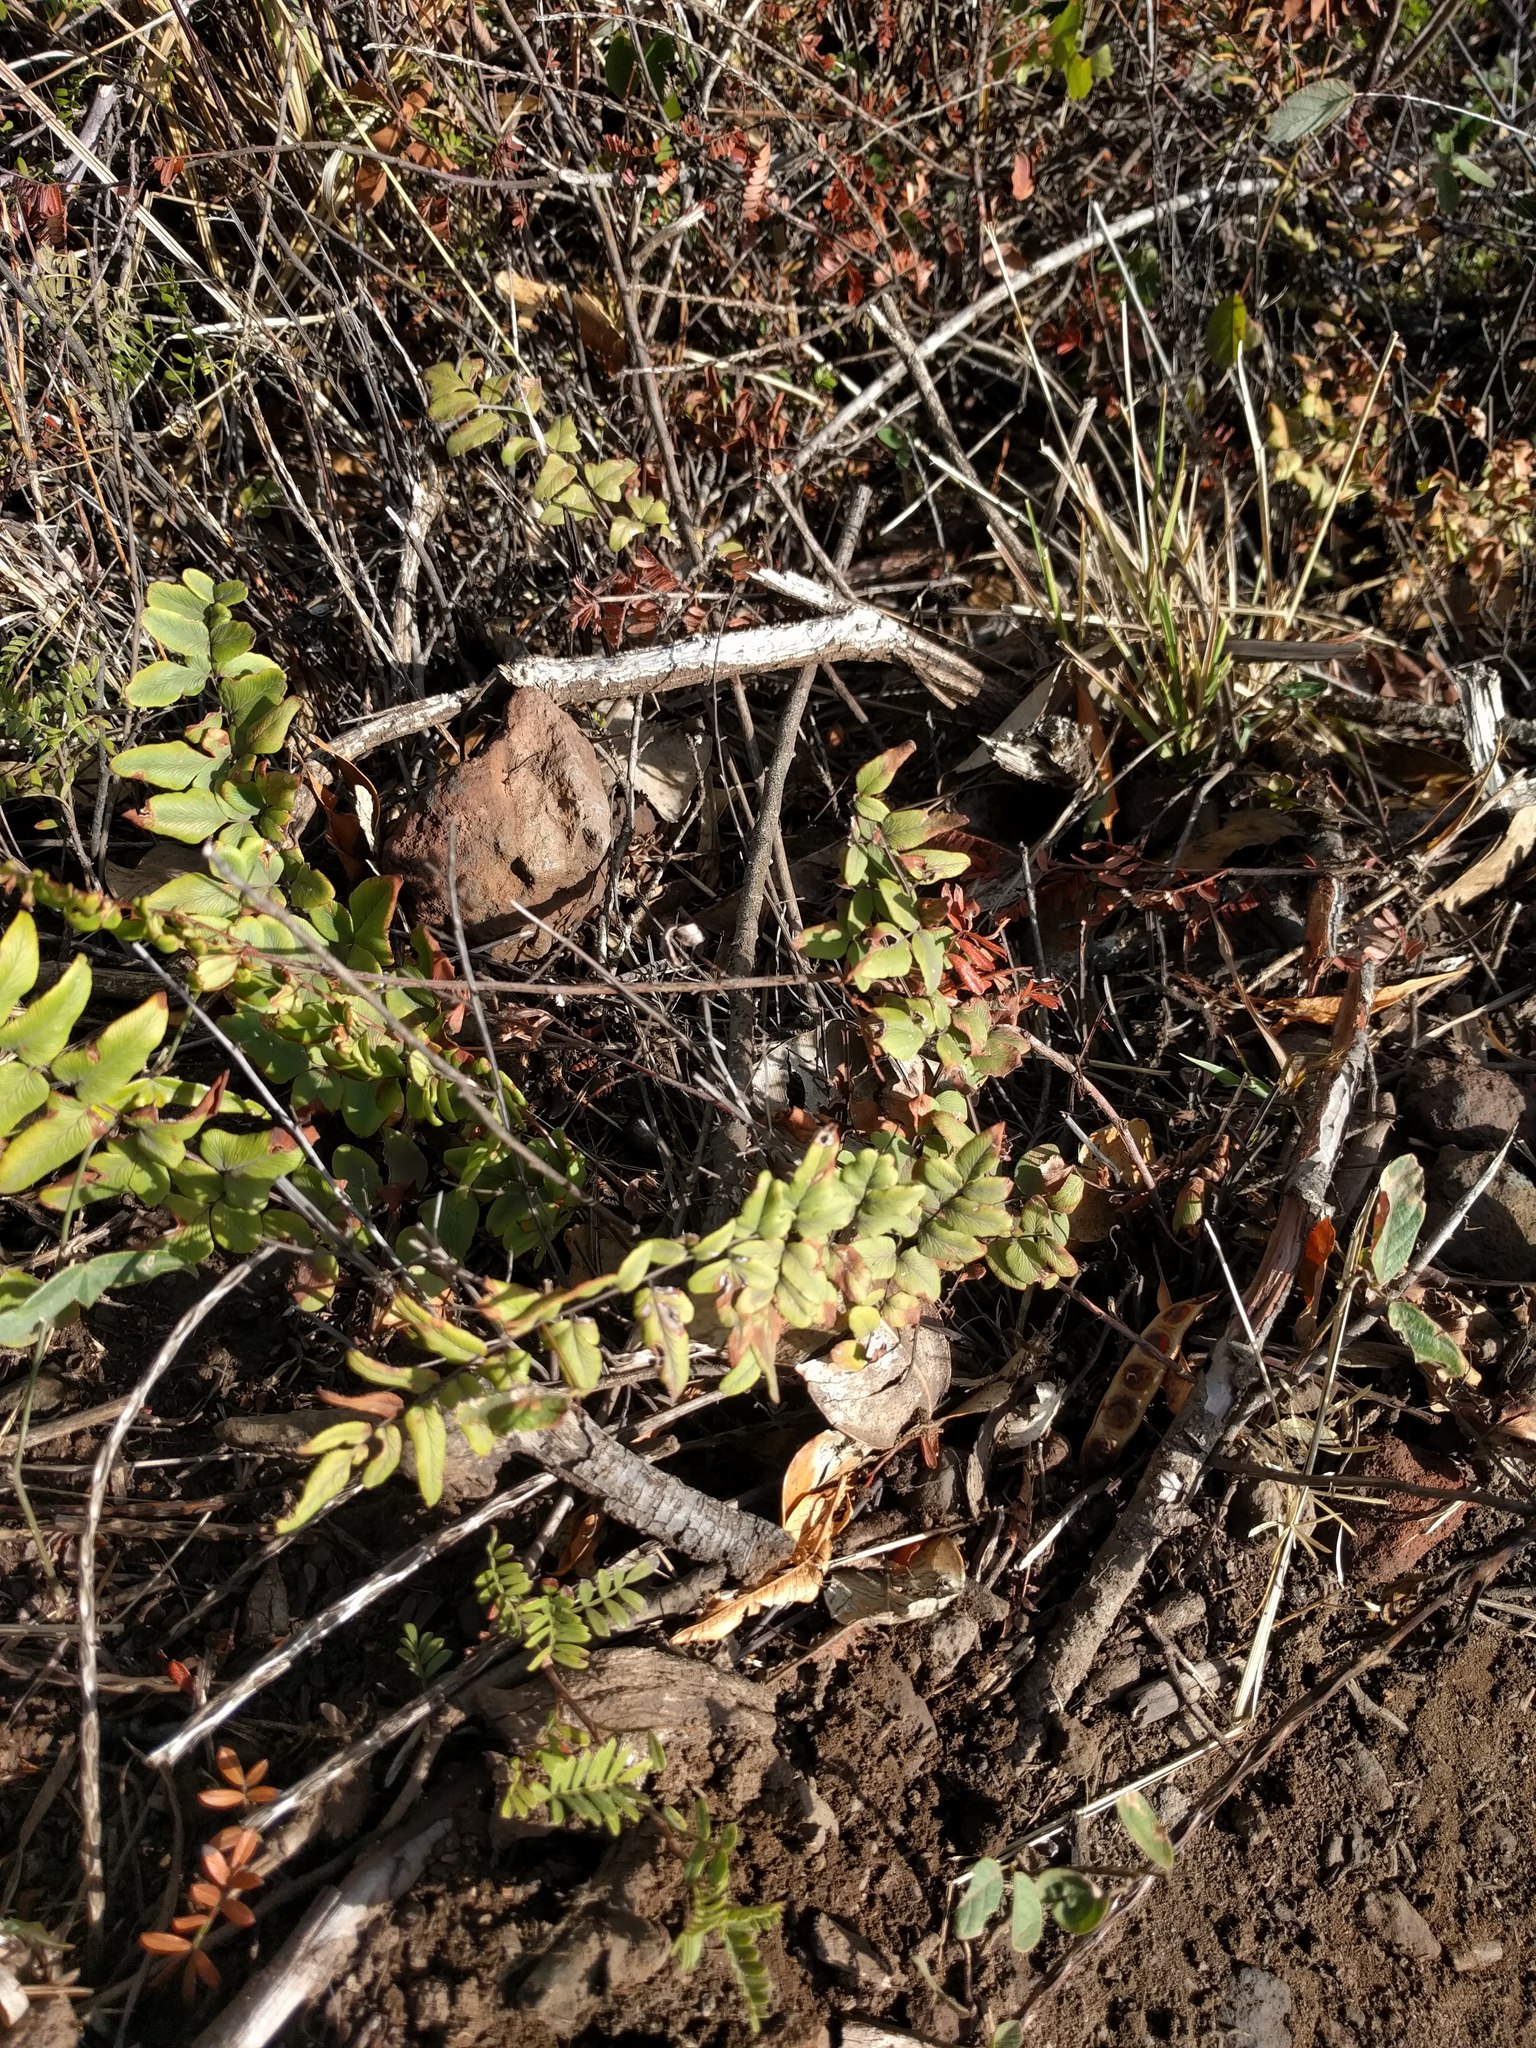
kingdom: Plantae
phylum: Tracheophyta
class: Polypodiopsida
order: Polypodiales
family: Pteridaceae
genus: Cheilanthes
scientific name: Cheilanthes viridis
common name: Green cliffbrake
